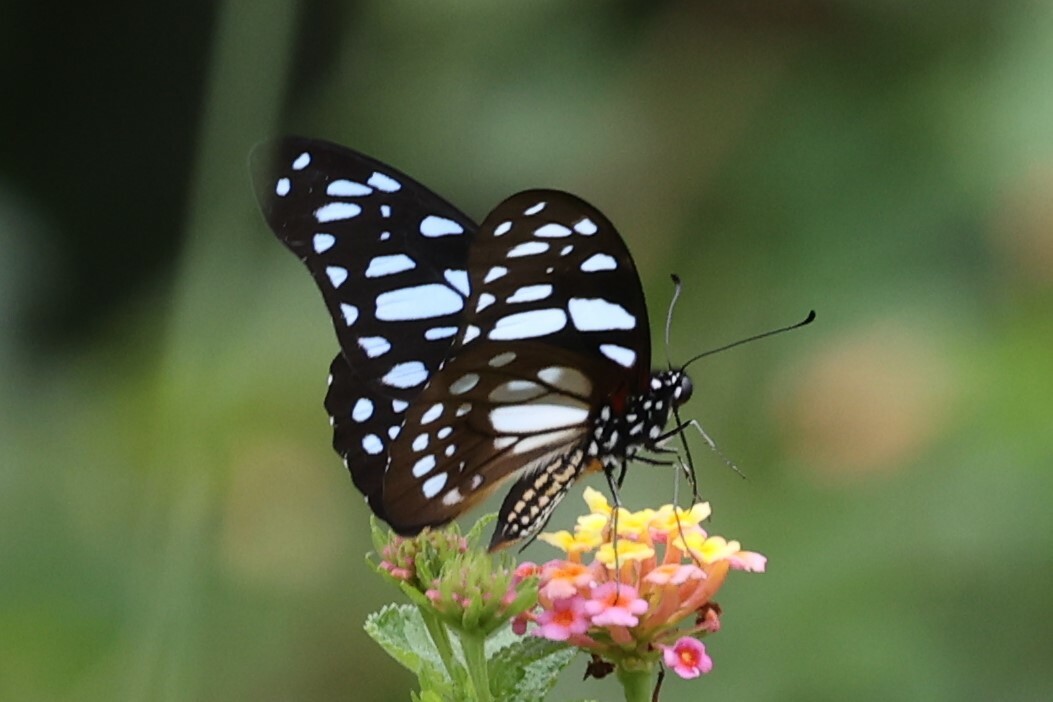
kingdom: Animalia
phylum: Arthropoda
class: Insecta
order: Lepidoptera
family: Papilionidae
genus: Graphium
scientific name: Graphium leonidas
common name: Common graphium
